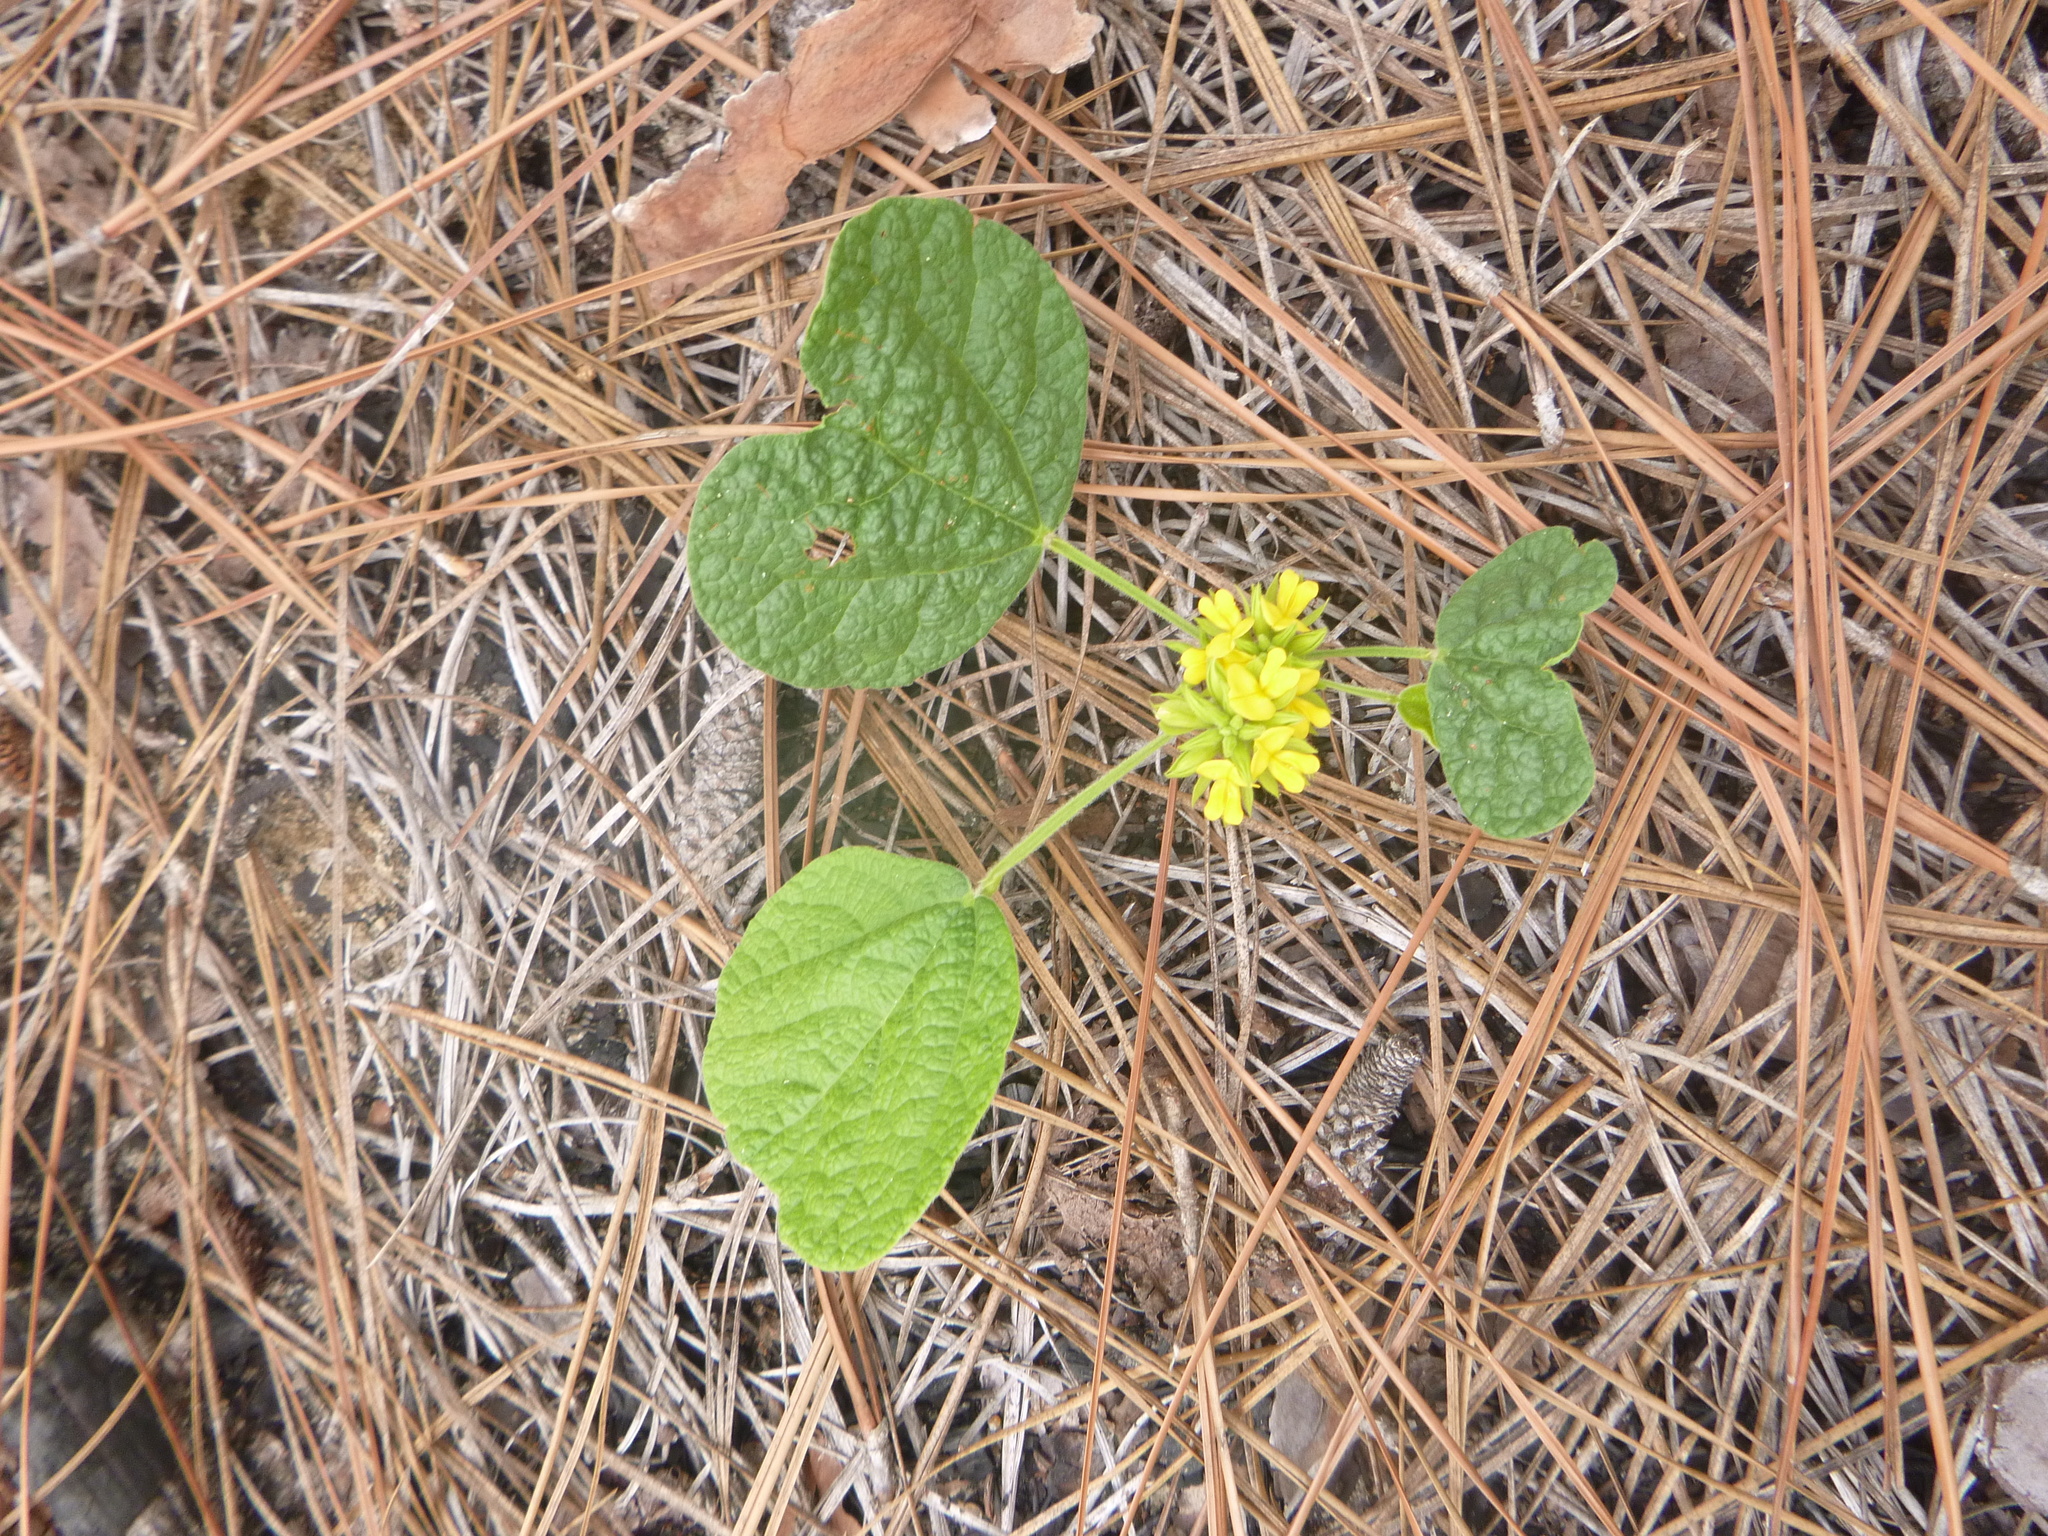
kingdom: Plantae
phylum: Tracheophyta
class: Magnoliopsida
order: Fabales
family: Fabaceae
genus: Rhynchosia
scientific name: Rhynchosia reniformis
